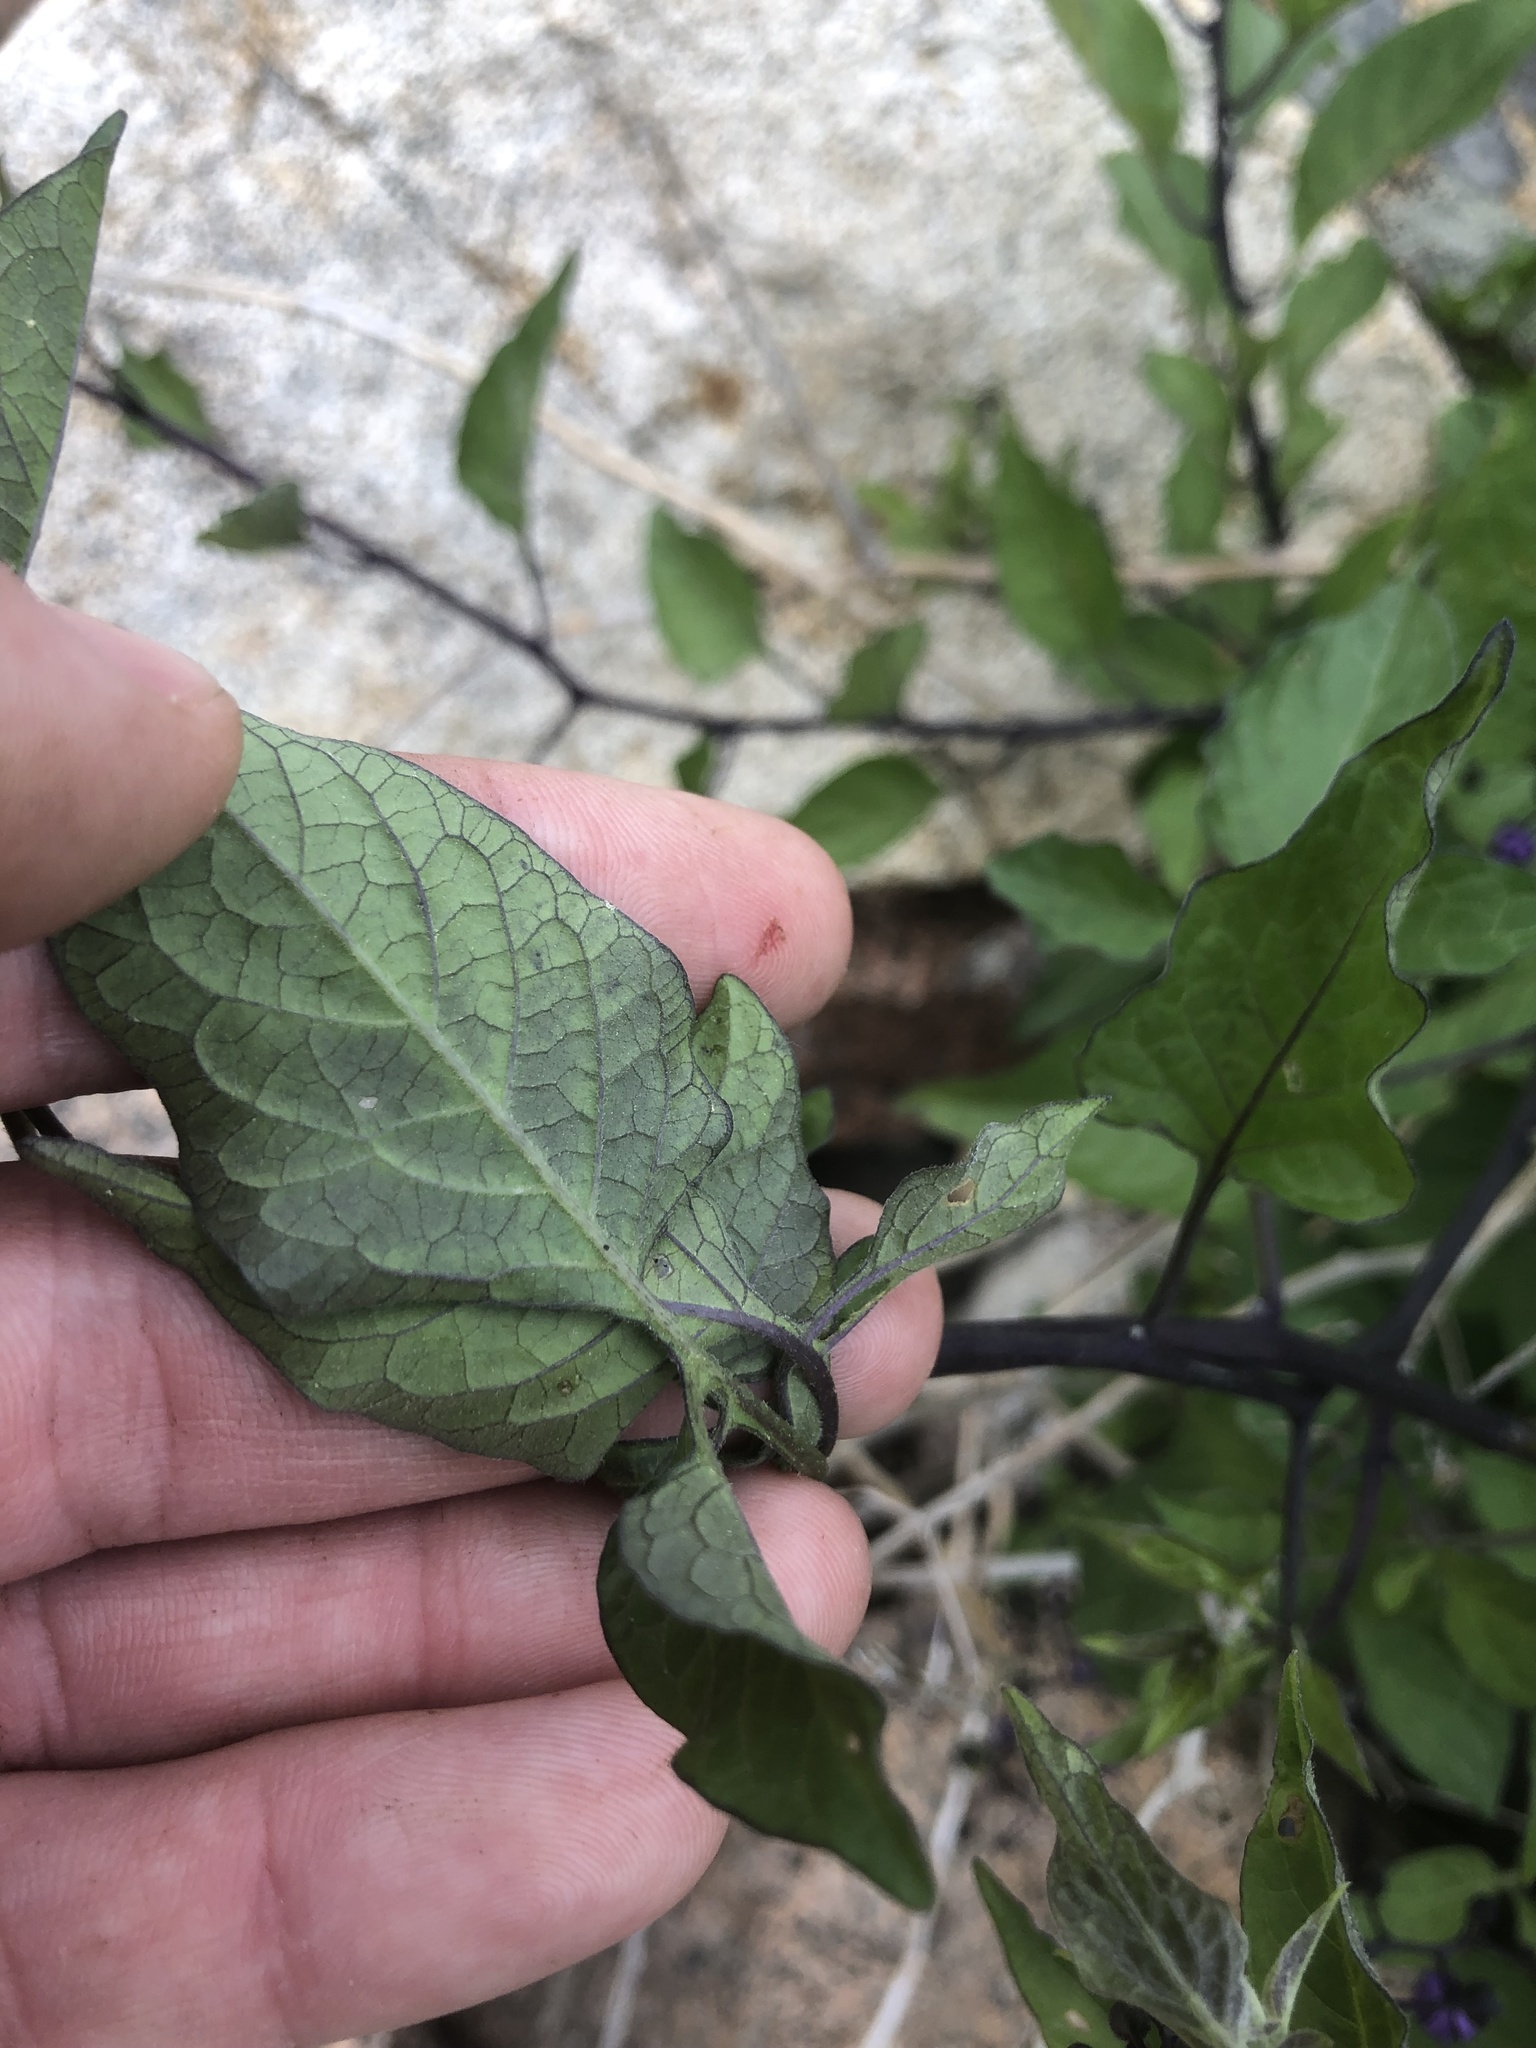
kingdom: Plantae
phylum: Tracheophyta
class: Magnoliopsida
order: Solanales
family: Solanaceae
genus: Solanum
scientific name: Solanum dulcamara
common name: Climbing nightshade
